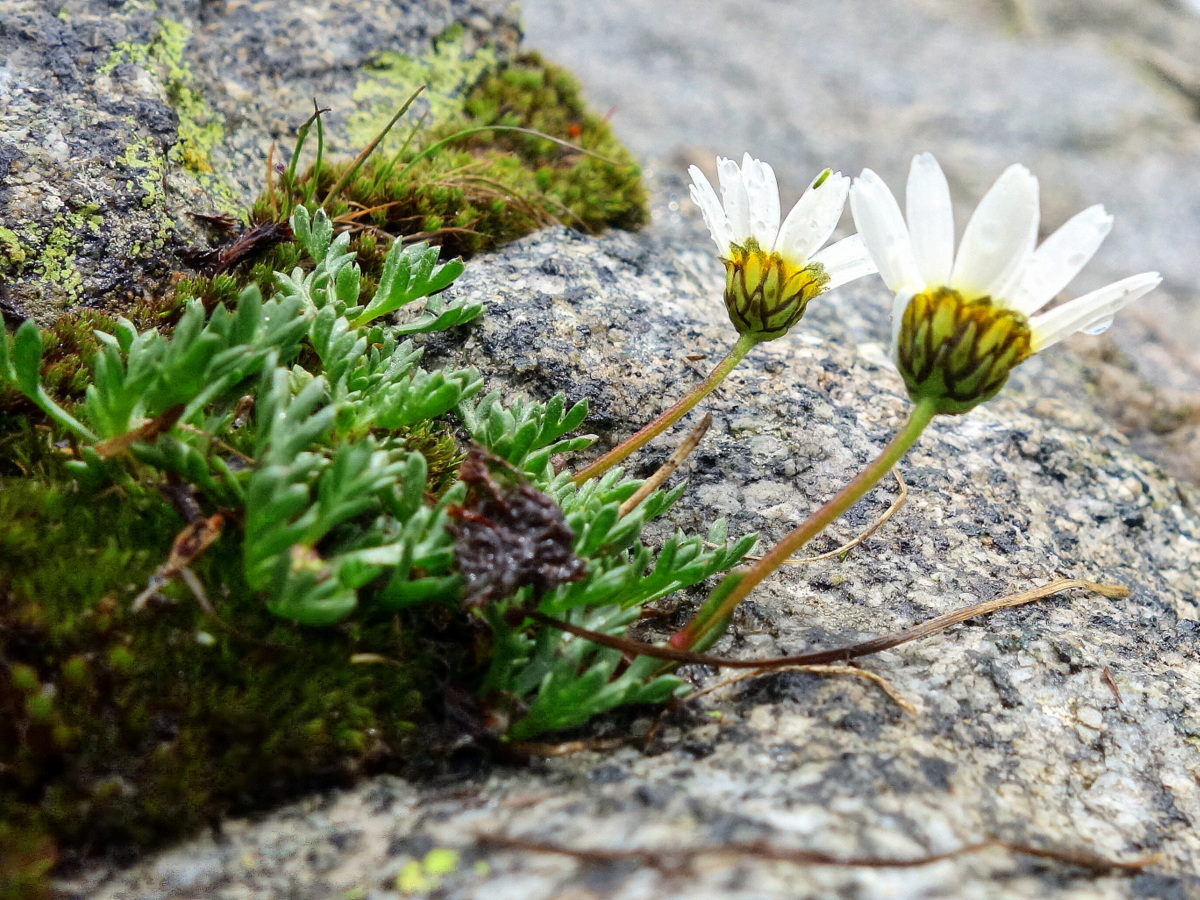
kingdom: Plantae
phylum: Tracheophyta
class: Magnoliopsida
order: Asterales
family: Asteraceae
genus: Leucanthemopsis
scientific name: Leucanthemopsis alpina
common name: Alpine moon daisy
